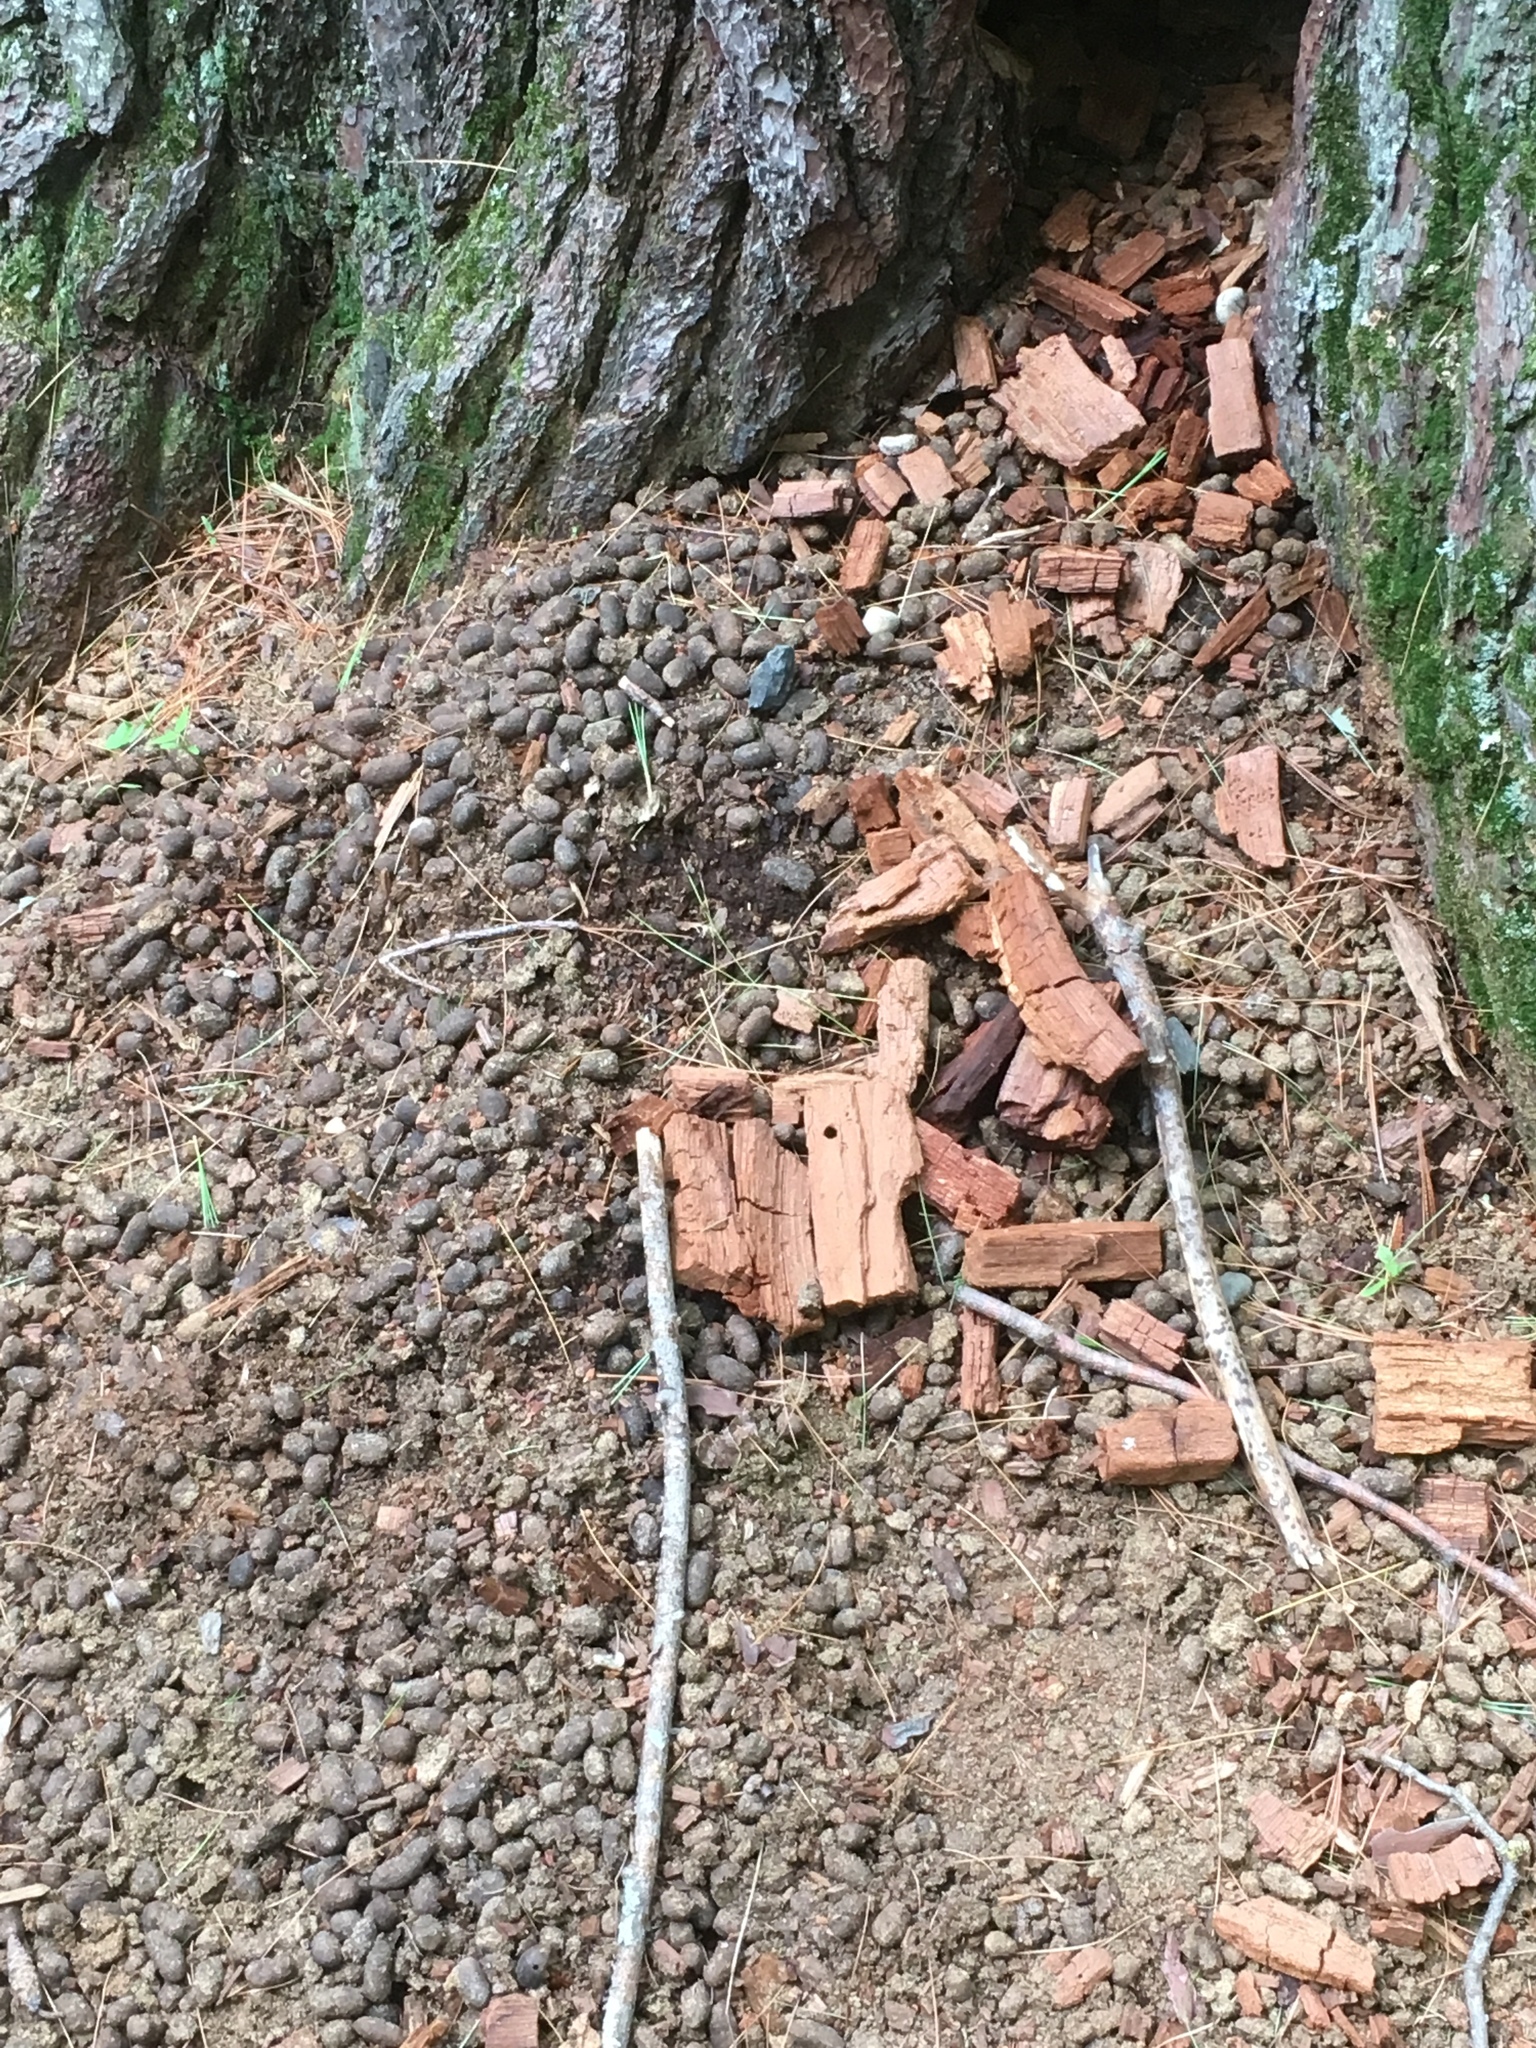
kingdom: Animalia
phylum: Chordata
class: Mammalia
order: Rodentia
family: Erethizontidae
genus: Erethizon
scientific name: Erethizon dorsatus
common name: North american porcupine
